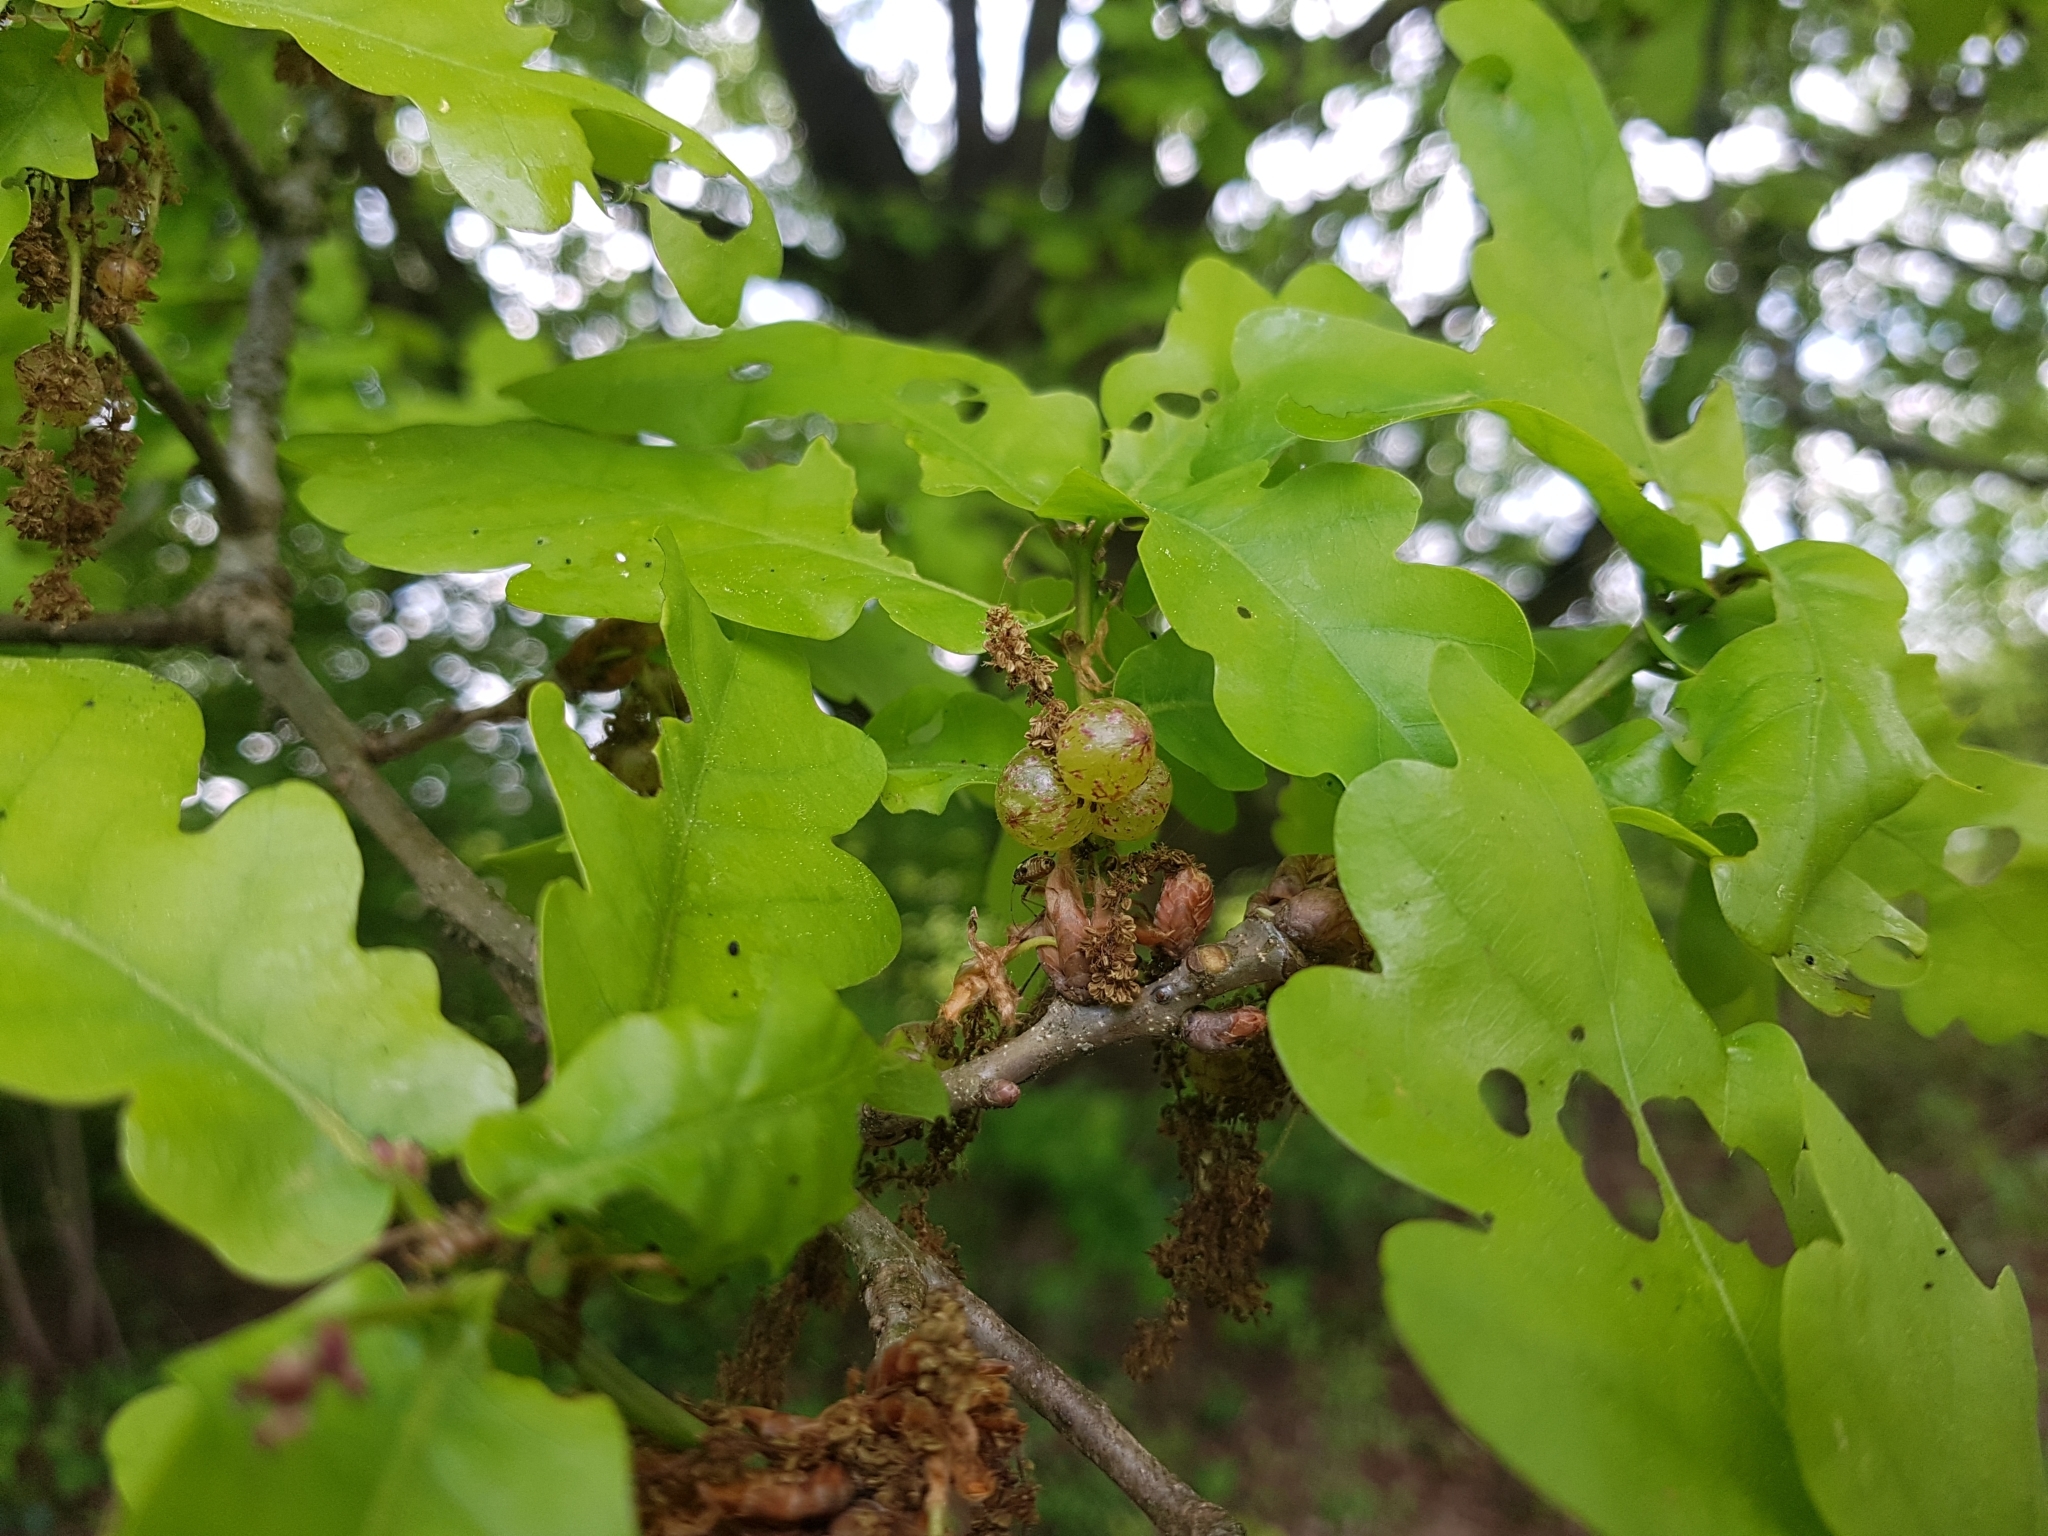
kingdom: Animalia
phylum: Arthropoda
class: Insecta
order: Hymenoptera
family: Cynipidae
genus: Neuroterus
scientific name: Neuroterus quercusbaccarum
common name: Common spangle gall
